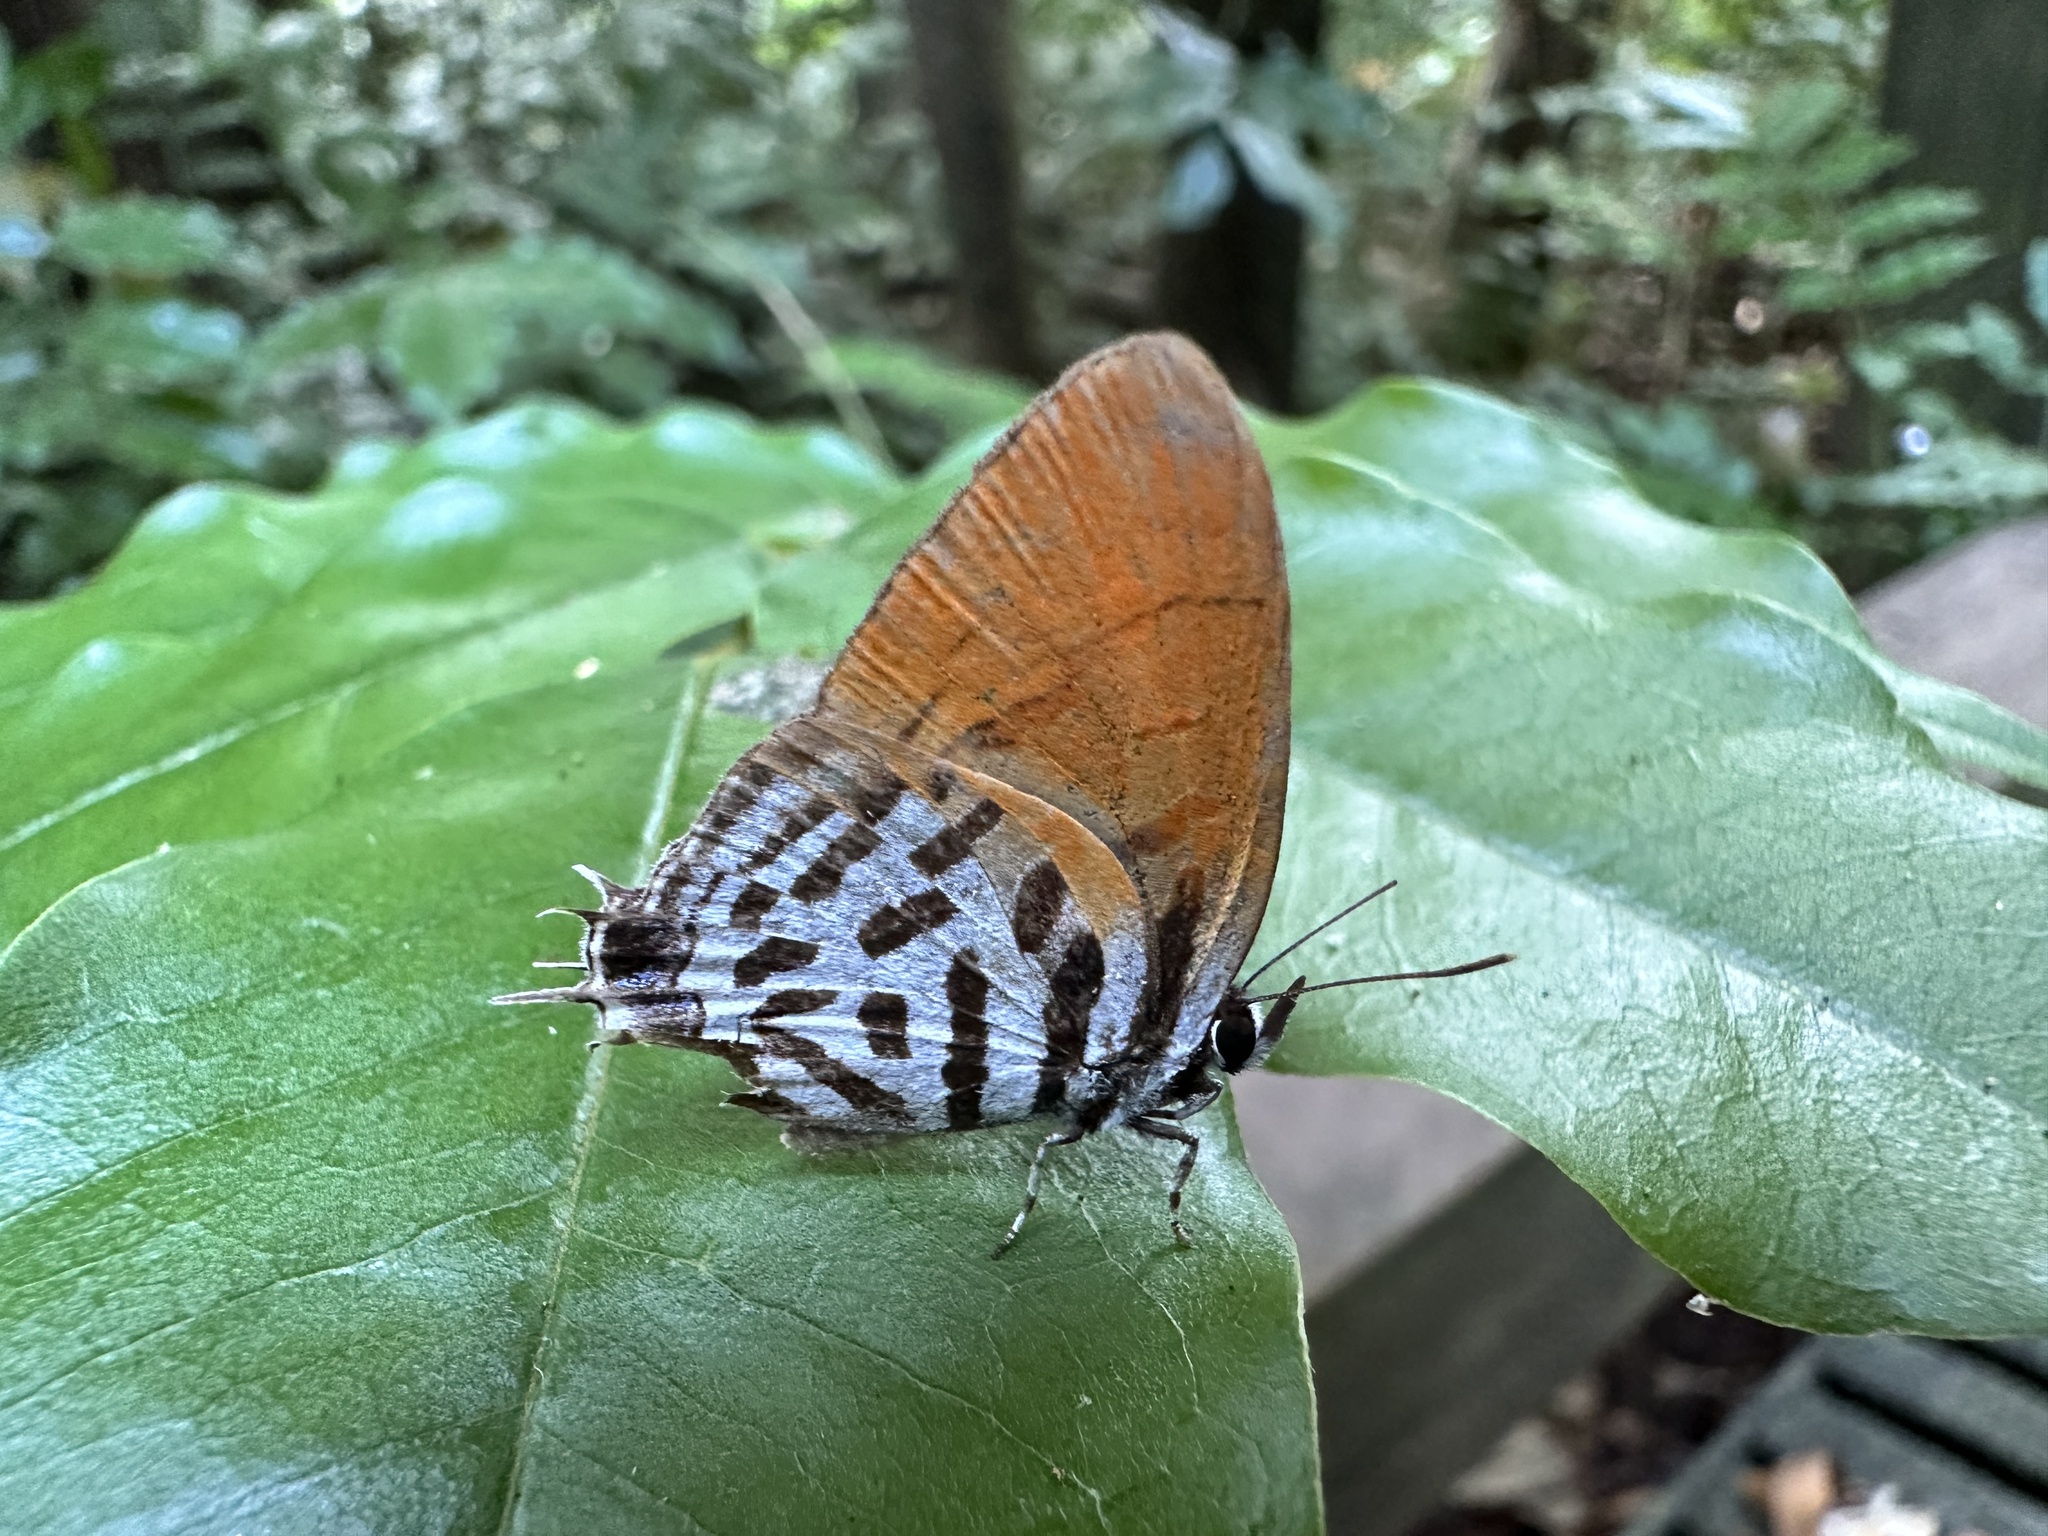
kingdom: Animalia
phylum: Arthropoda
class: Insecta
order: Lepidoptera
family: Lycaenidae
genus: Drupadia
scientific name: Drupadia ravindra
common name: Common posy
